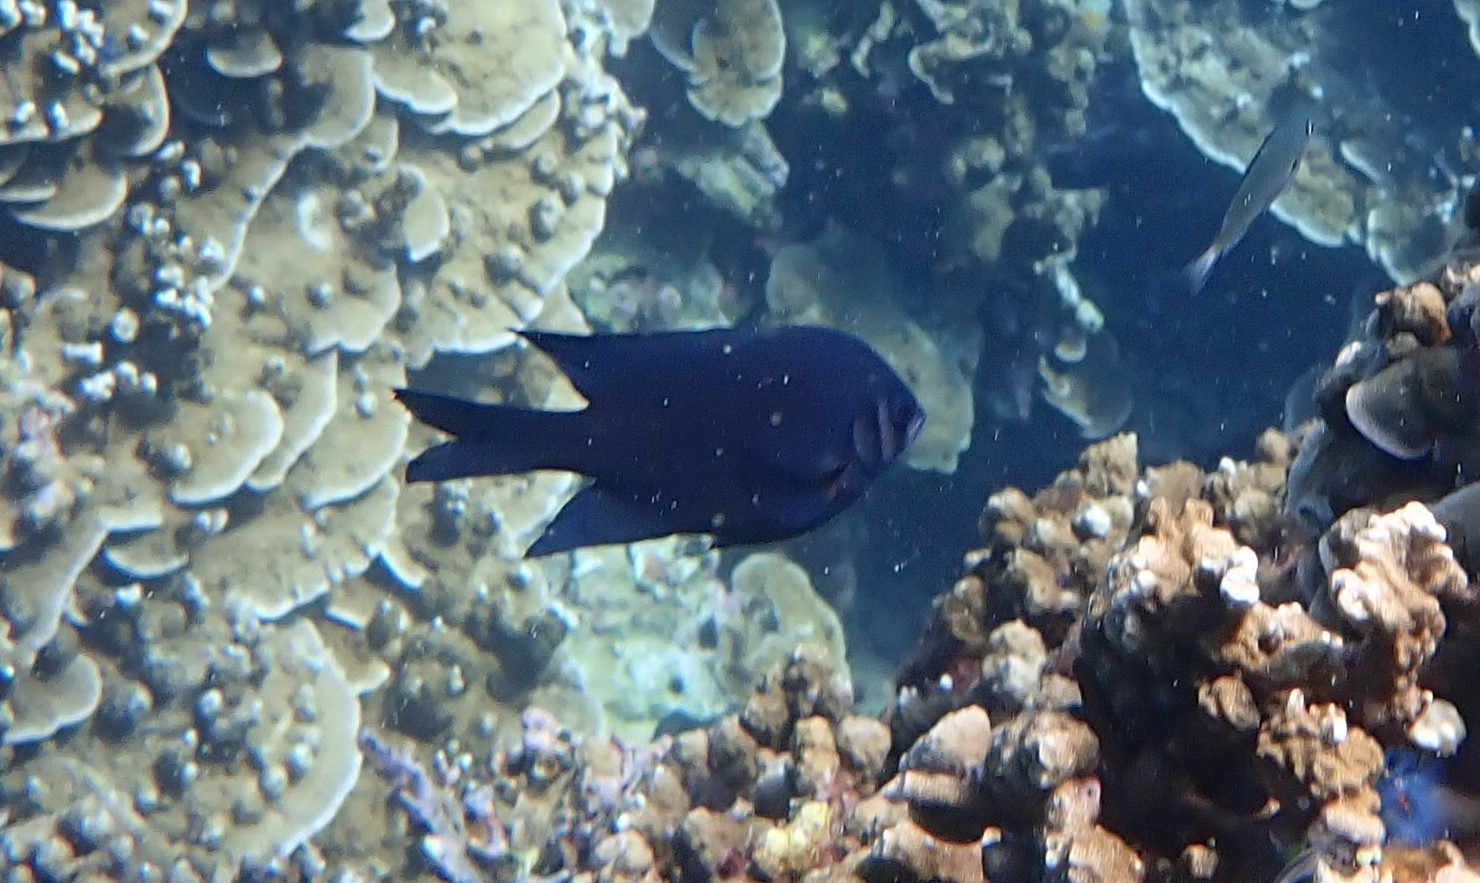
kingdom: Animalia
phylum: Chordata
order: Perciformes
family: Pomacentridae
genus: Neoglyphidodon
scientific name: Neoglyphidodon nigroris
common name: Behn's damsel
